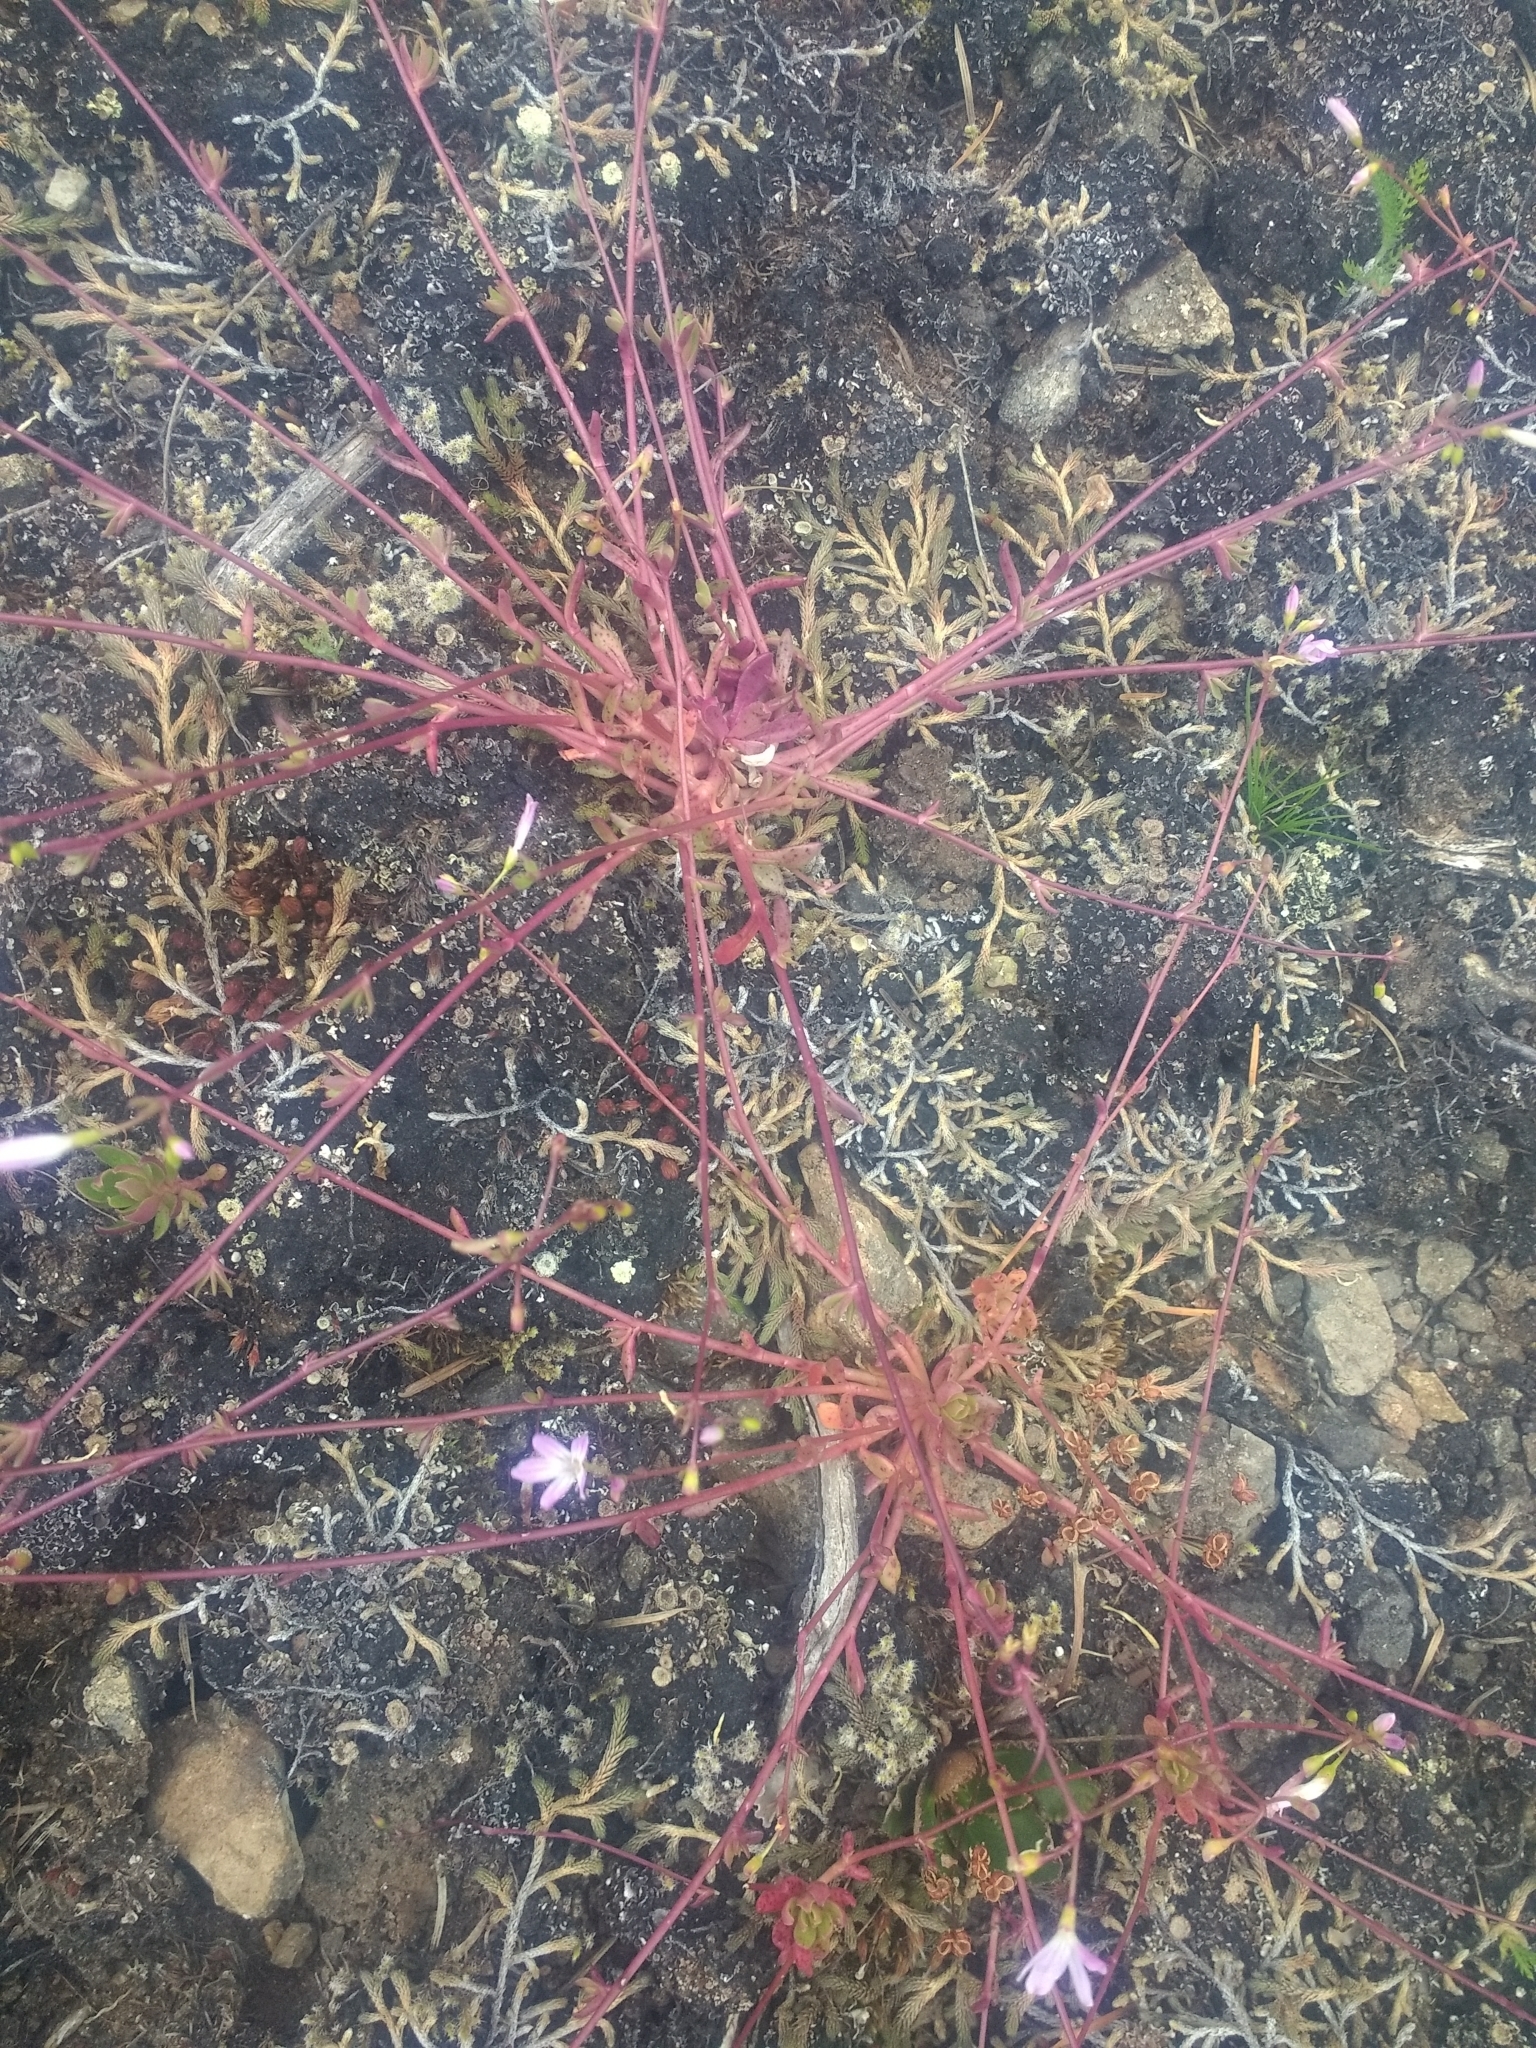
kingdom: Plantae
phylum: Tracheophyta
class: Magnoliopsida
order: Caryophyllales
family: Montiaceae
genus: Montia
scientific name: Montia parvifolia
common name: Small-leaved blinks
